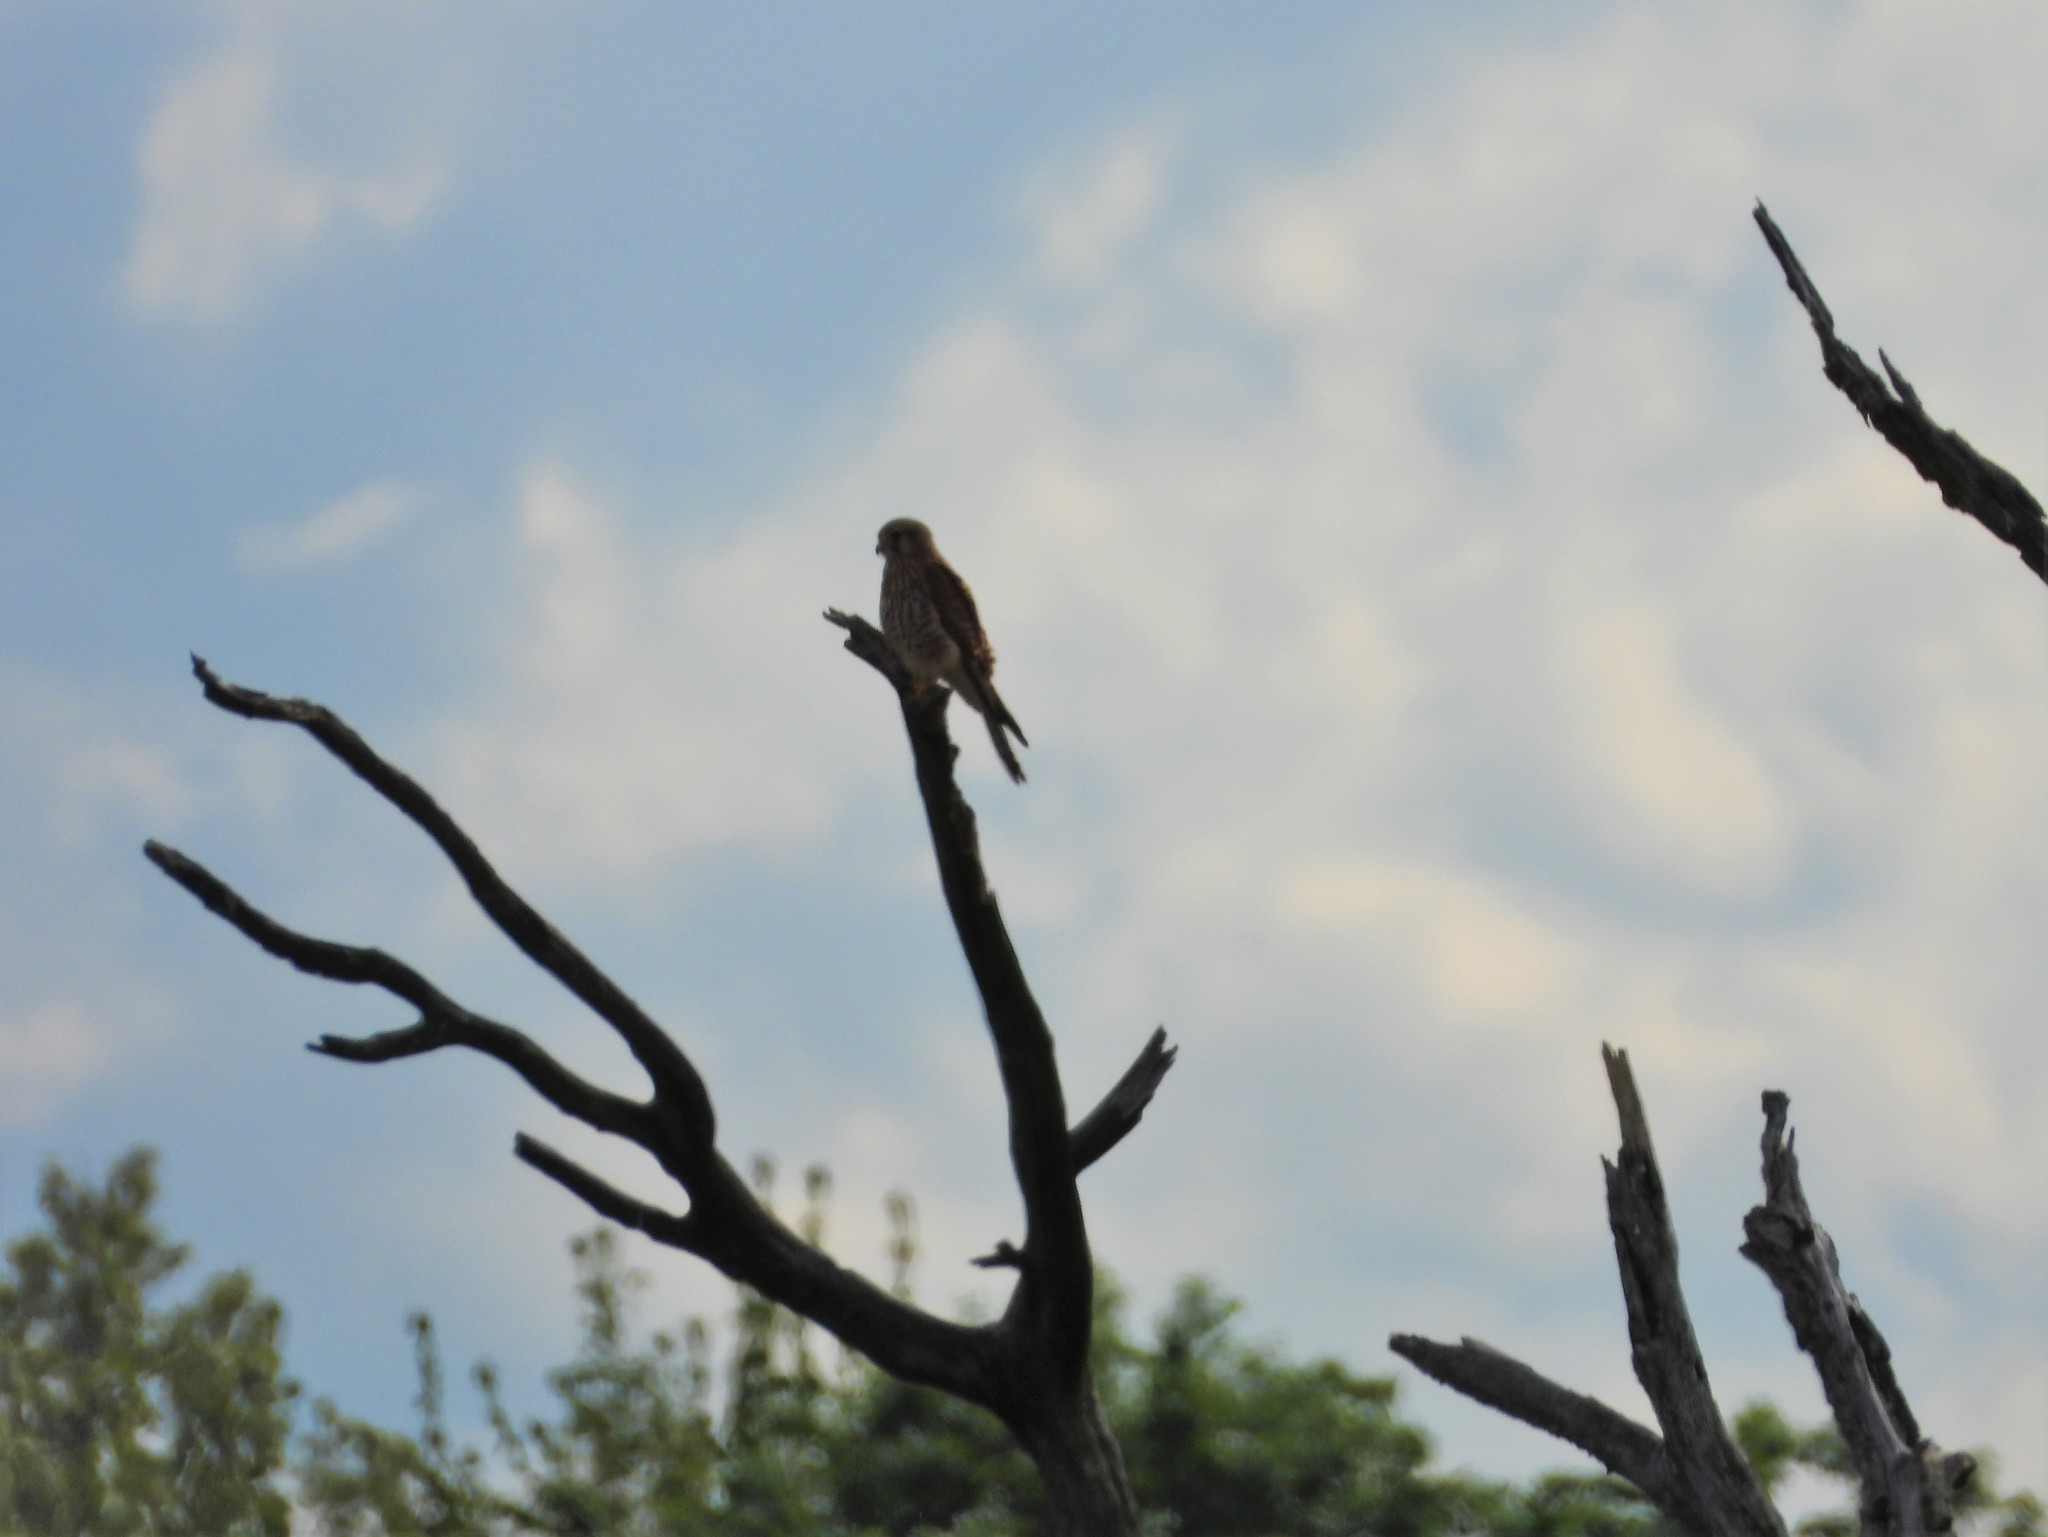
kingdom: Animalia
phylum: Chordata
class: Aves
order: Falconiformes
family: Falconidae
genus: Falco
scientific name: Falco tinnunculus
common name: Common kestrel
